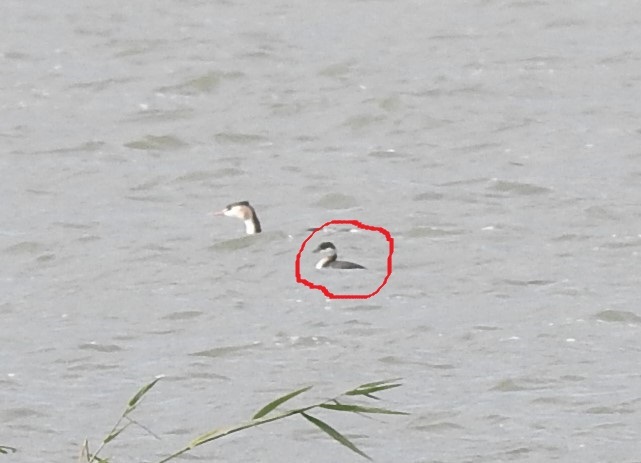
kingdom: Animalia
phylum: Chordata
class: Aves
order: Podicipediformes
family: Podicipedidae
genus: Podiceps
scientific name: Podiceps auritus
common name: Horned grebe
